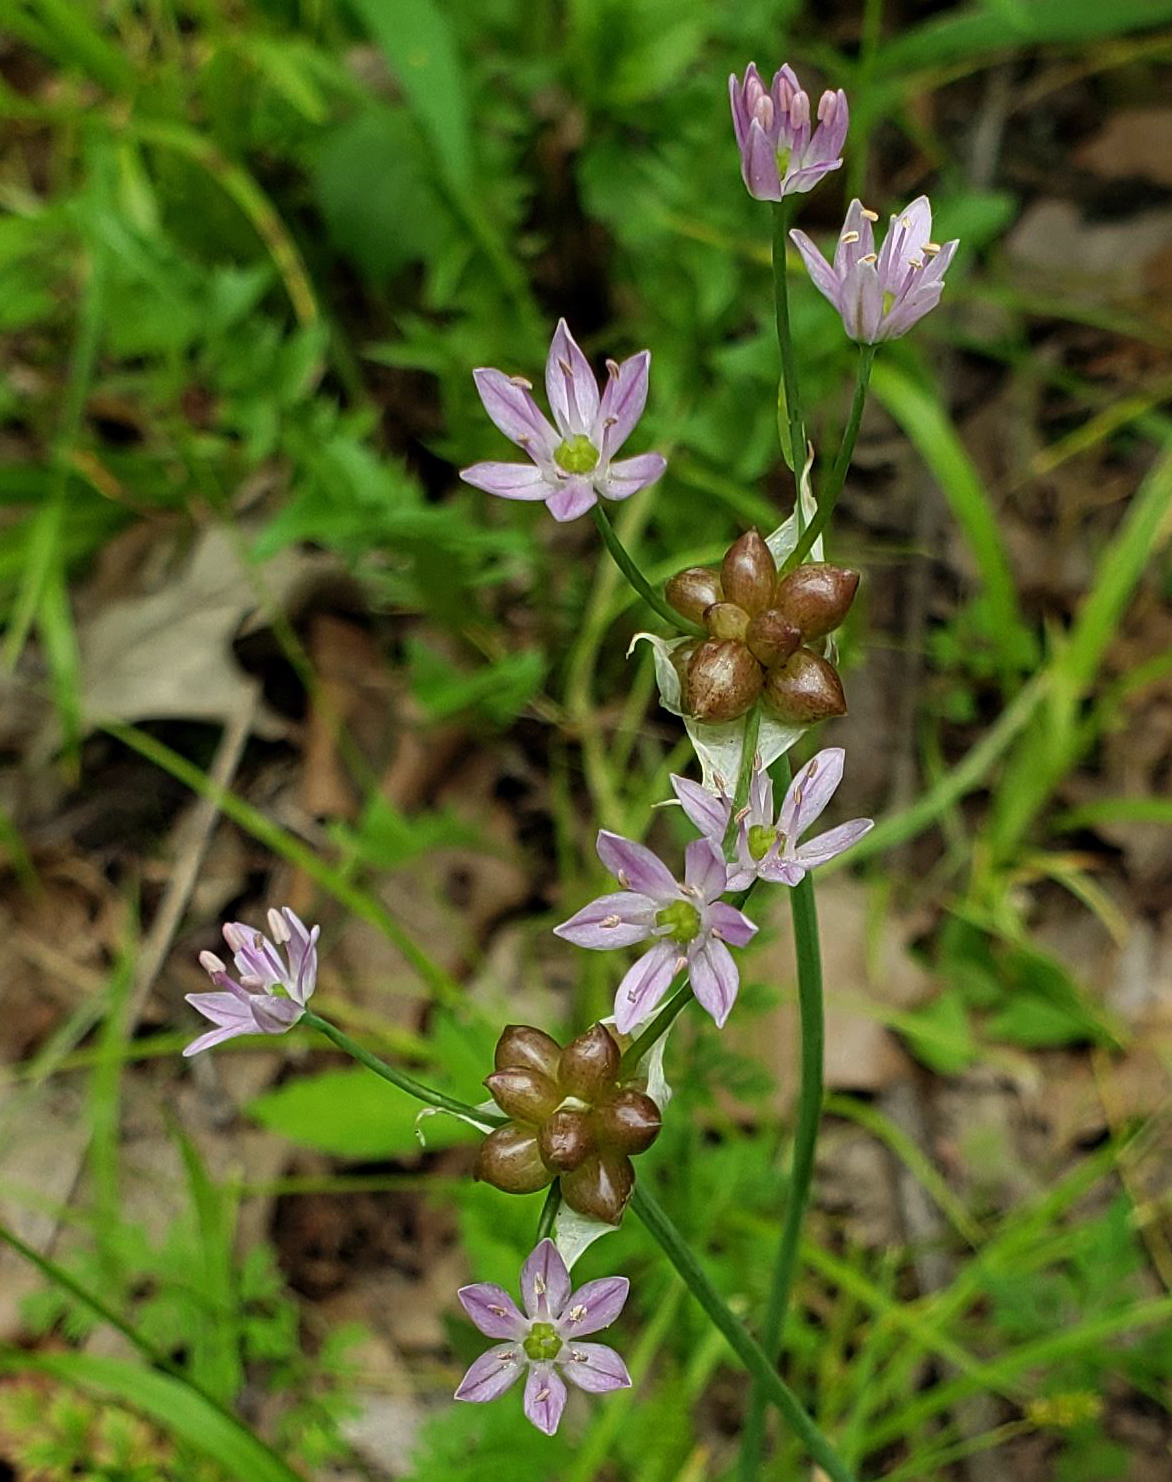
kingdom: Plantae
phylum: Tracheophyta
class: Liliopsida
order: Asparagales
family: Amaryllidaceae
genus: Allium
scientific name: Allium canadense
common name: Meadow garlic
